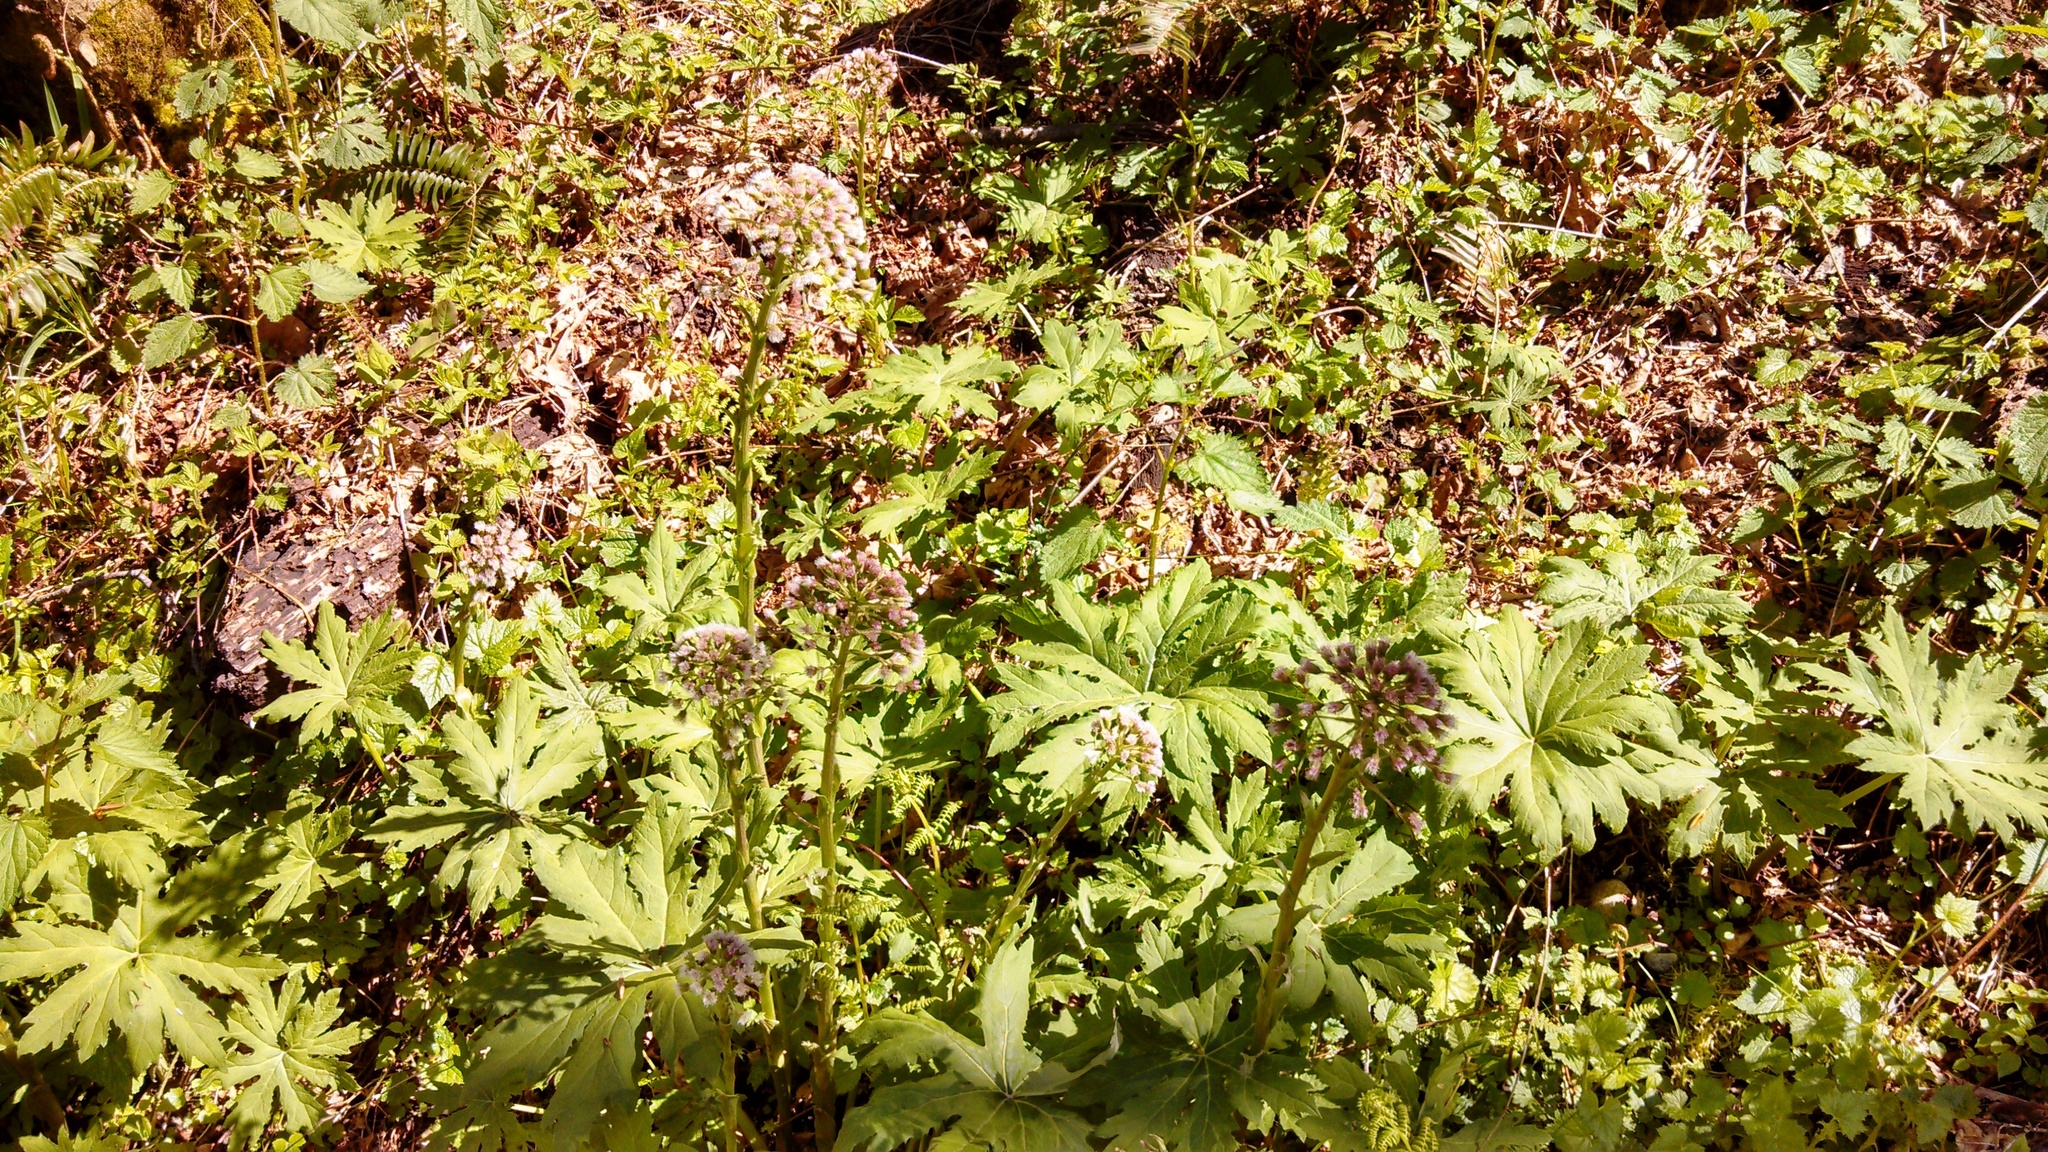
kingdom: Plantae
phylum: Tracheophyta
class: Magnoliopsida
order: Asterales
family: Asteraceae
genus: Petasites
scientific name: Petasites frigidus
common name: Arctic butterbur
